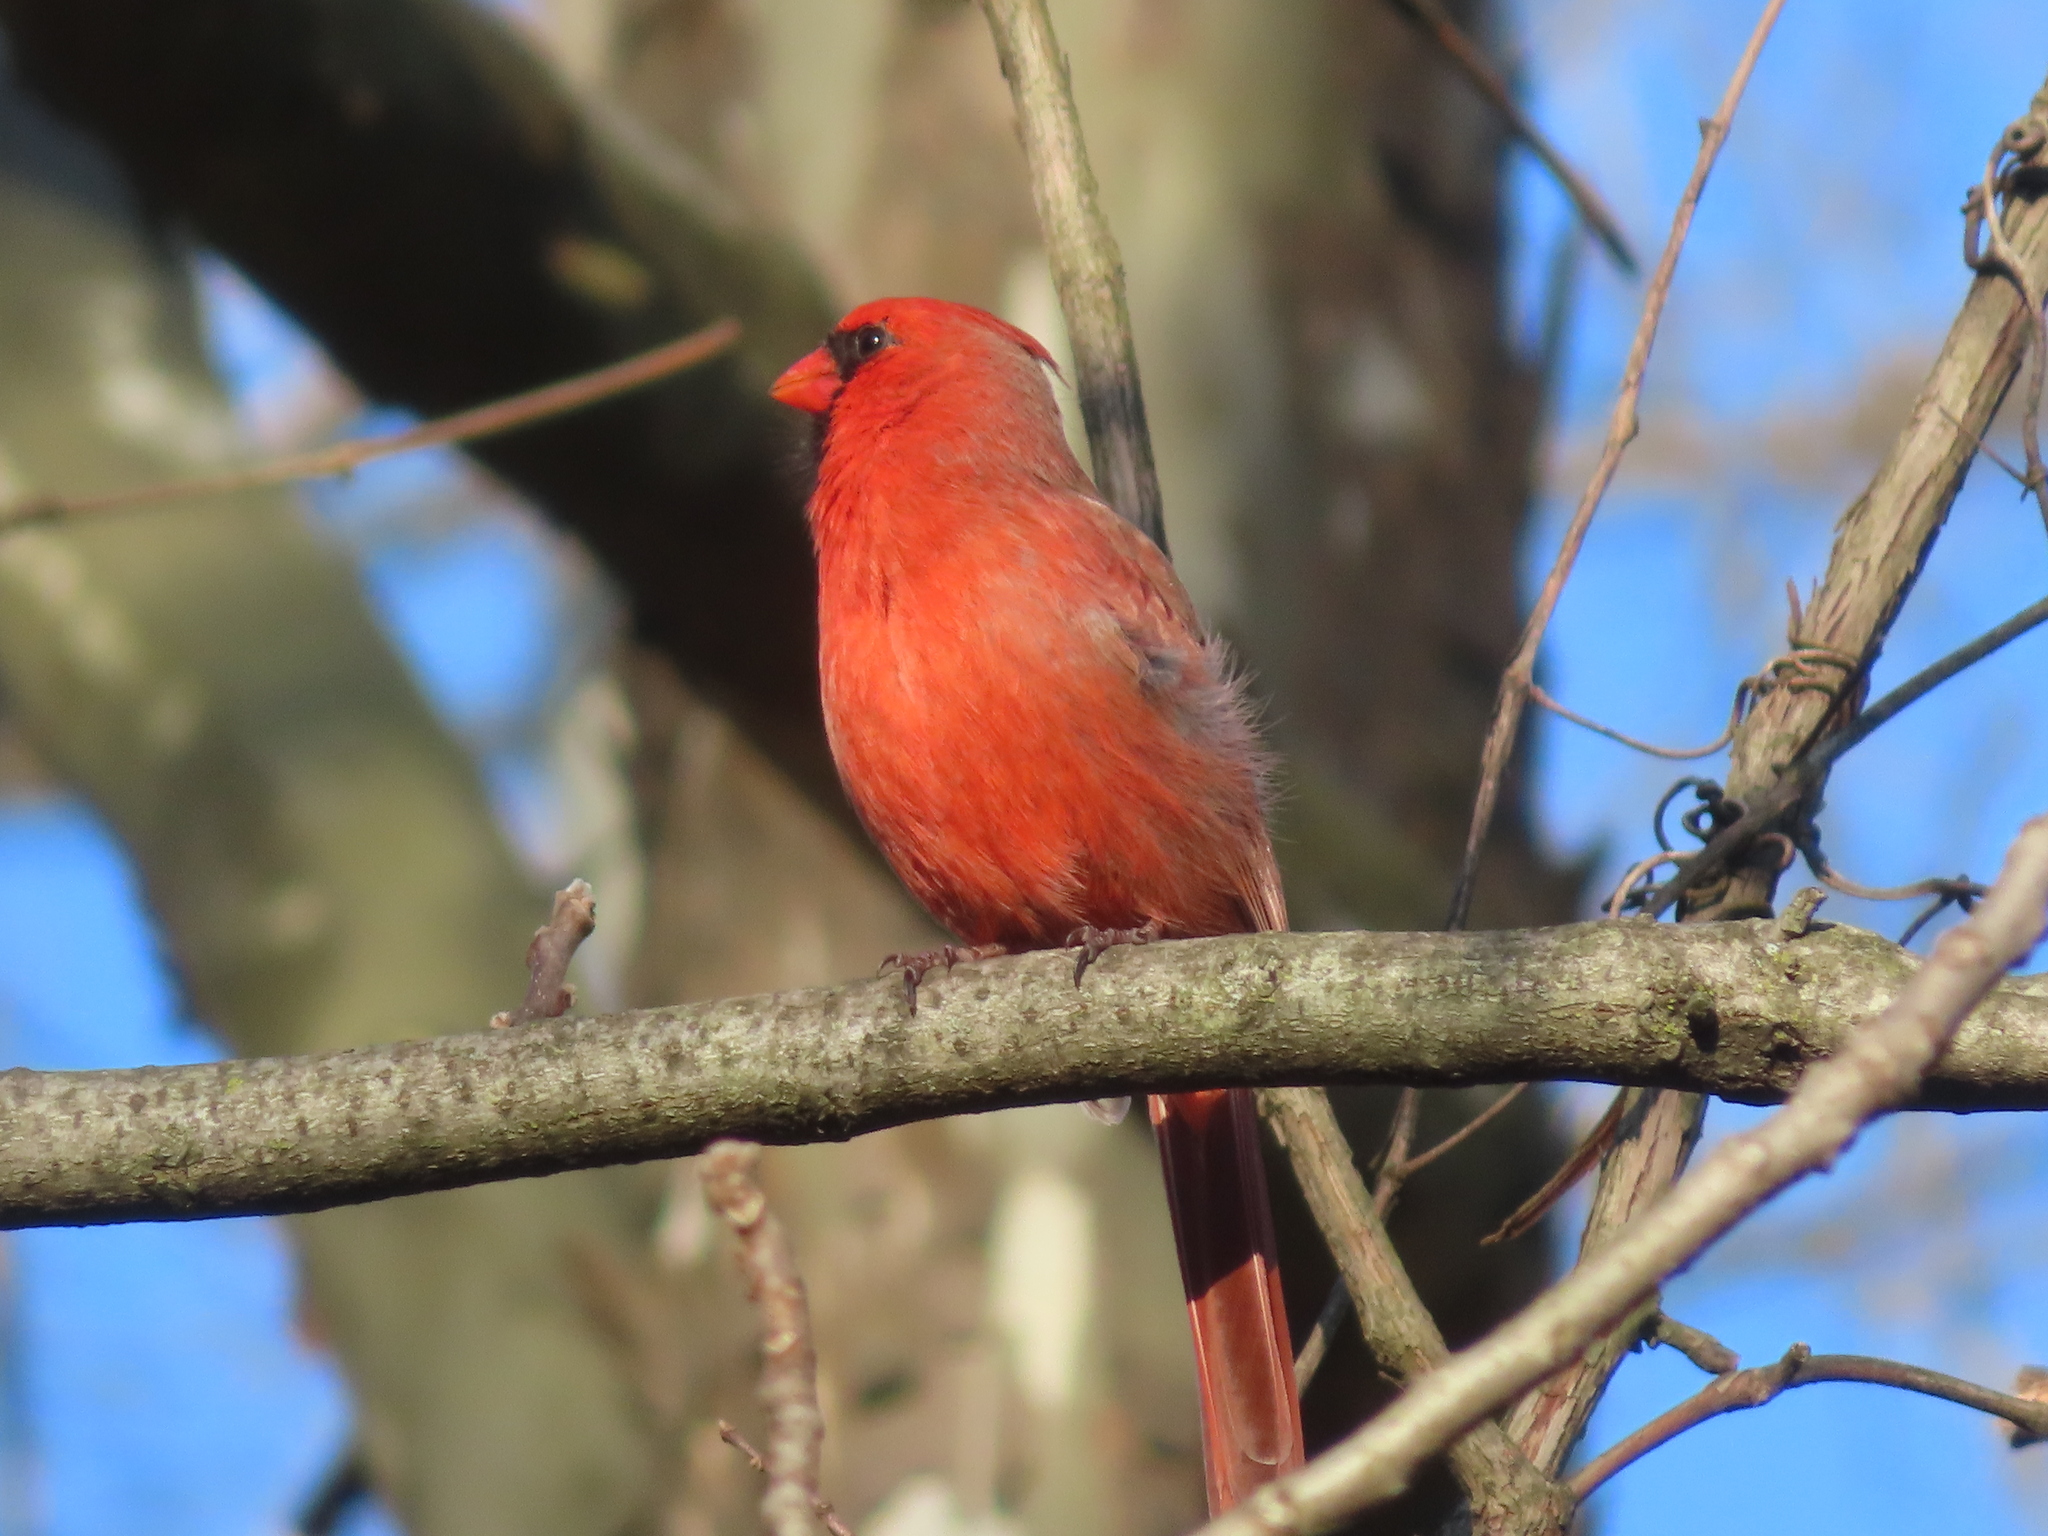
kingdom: Animalia
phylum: Chordata
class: Aves
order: Passeriformes
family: Cardinalidae
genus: Cardinalis
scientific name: Cardinalis cardinalis
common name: Northern cardinal
